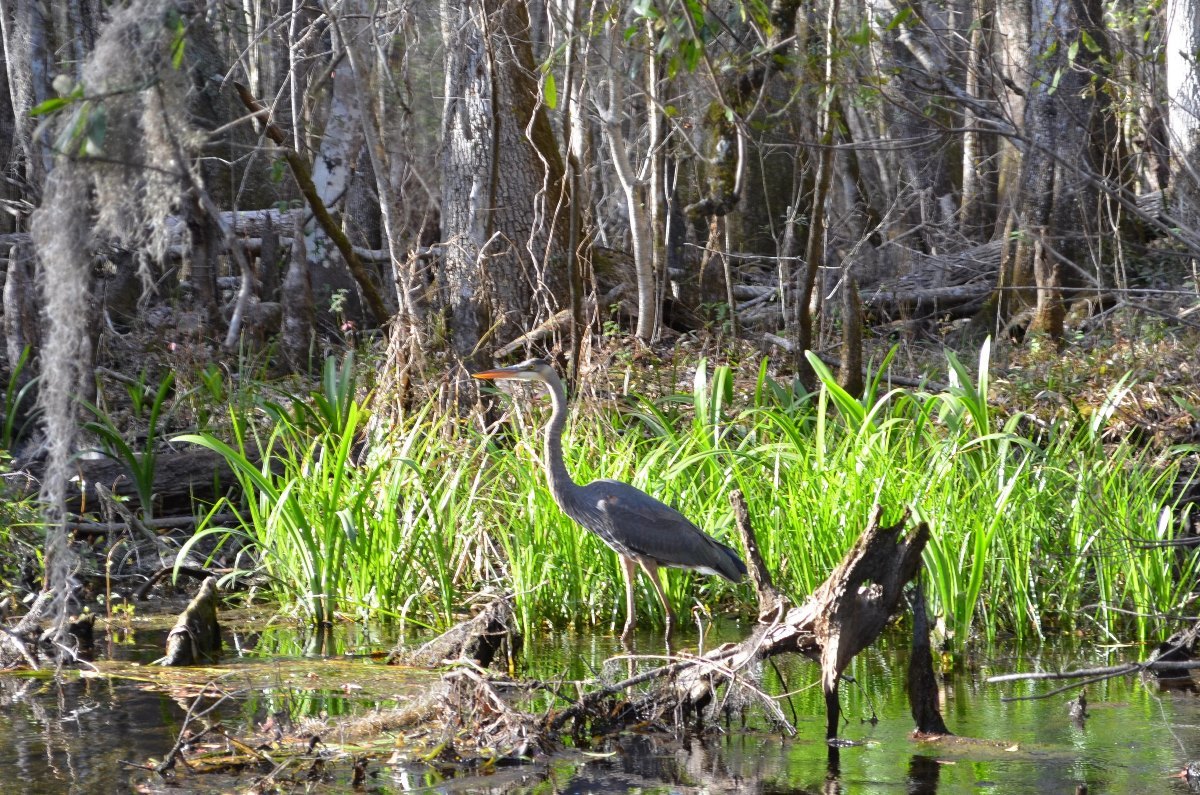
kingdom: Animalia
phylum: Chordata
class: Aves
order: Pelecaniformes
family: Ardeidae
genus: Ardea
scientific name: Ardea herodias
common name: Great blue heron
